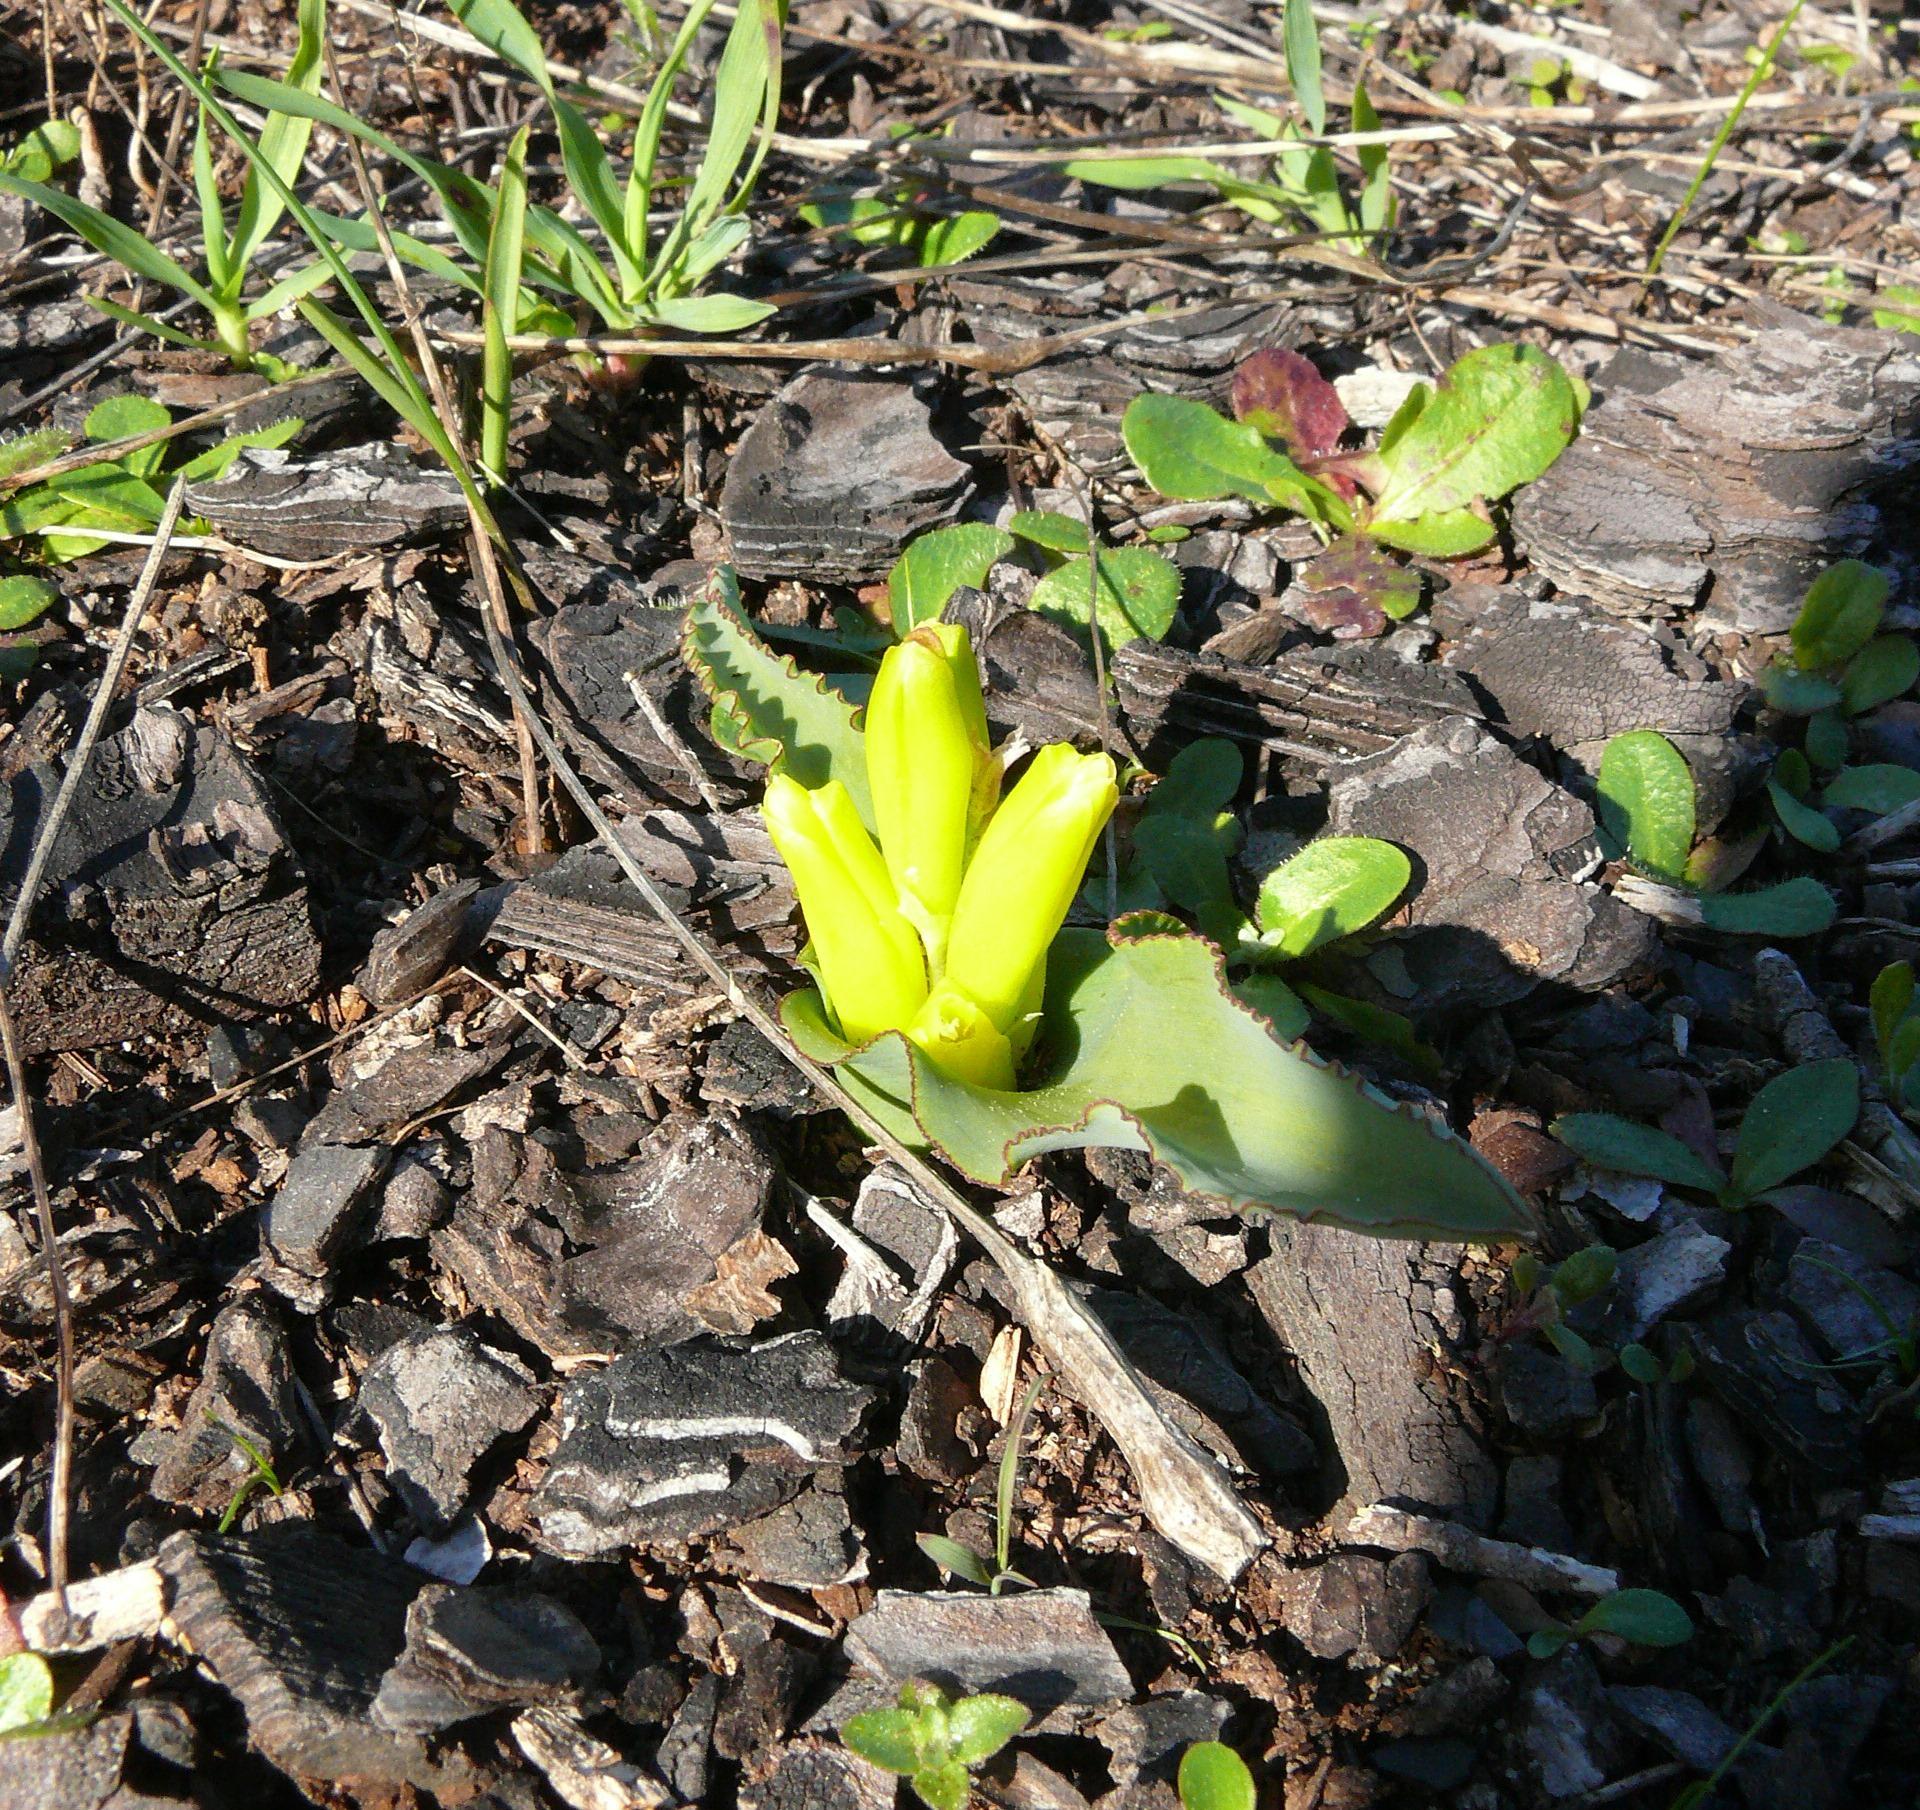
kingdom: Plantae
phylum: Tracheophyta
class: Liliopsida
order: Asparagales
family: Asparagaceae
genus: Lachenalia
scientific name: Lachenalia reflexa
